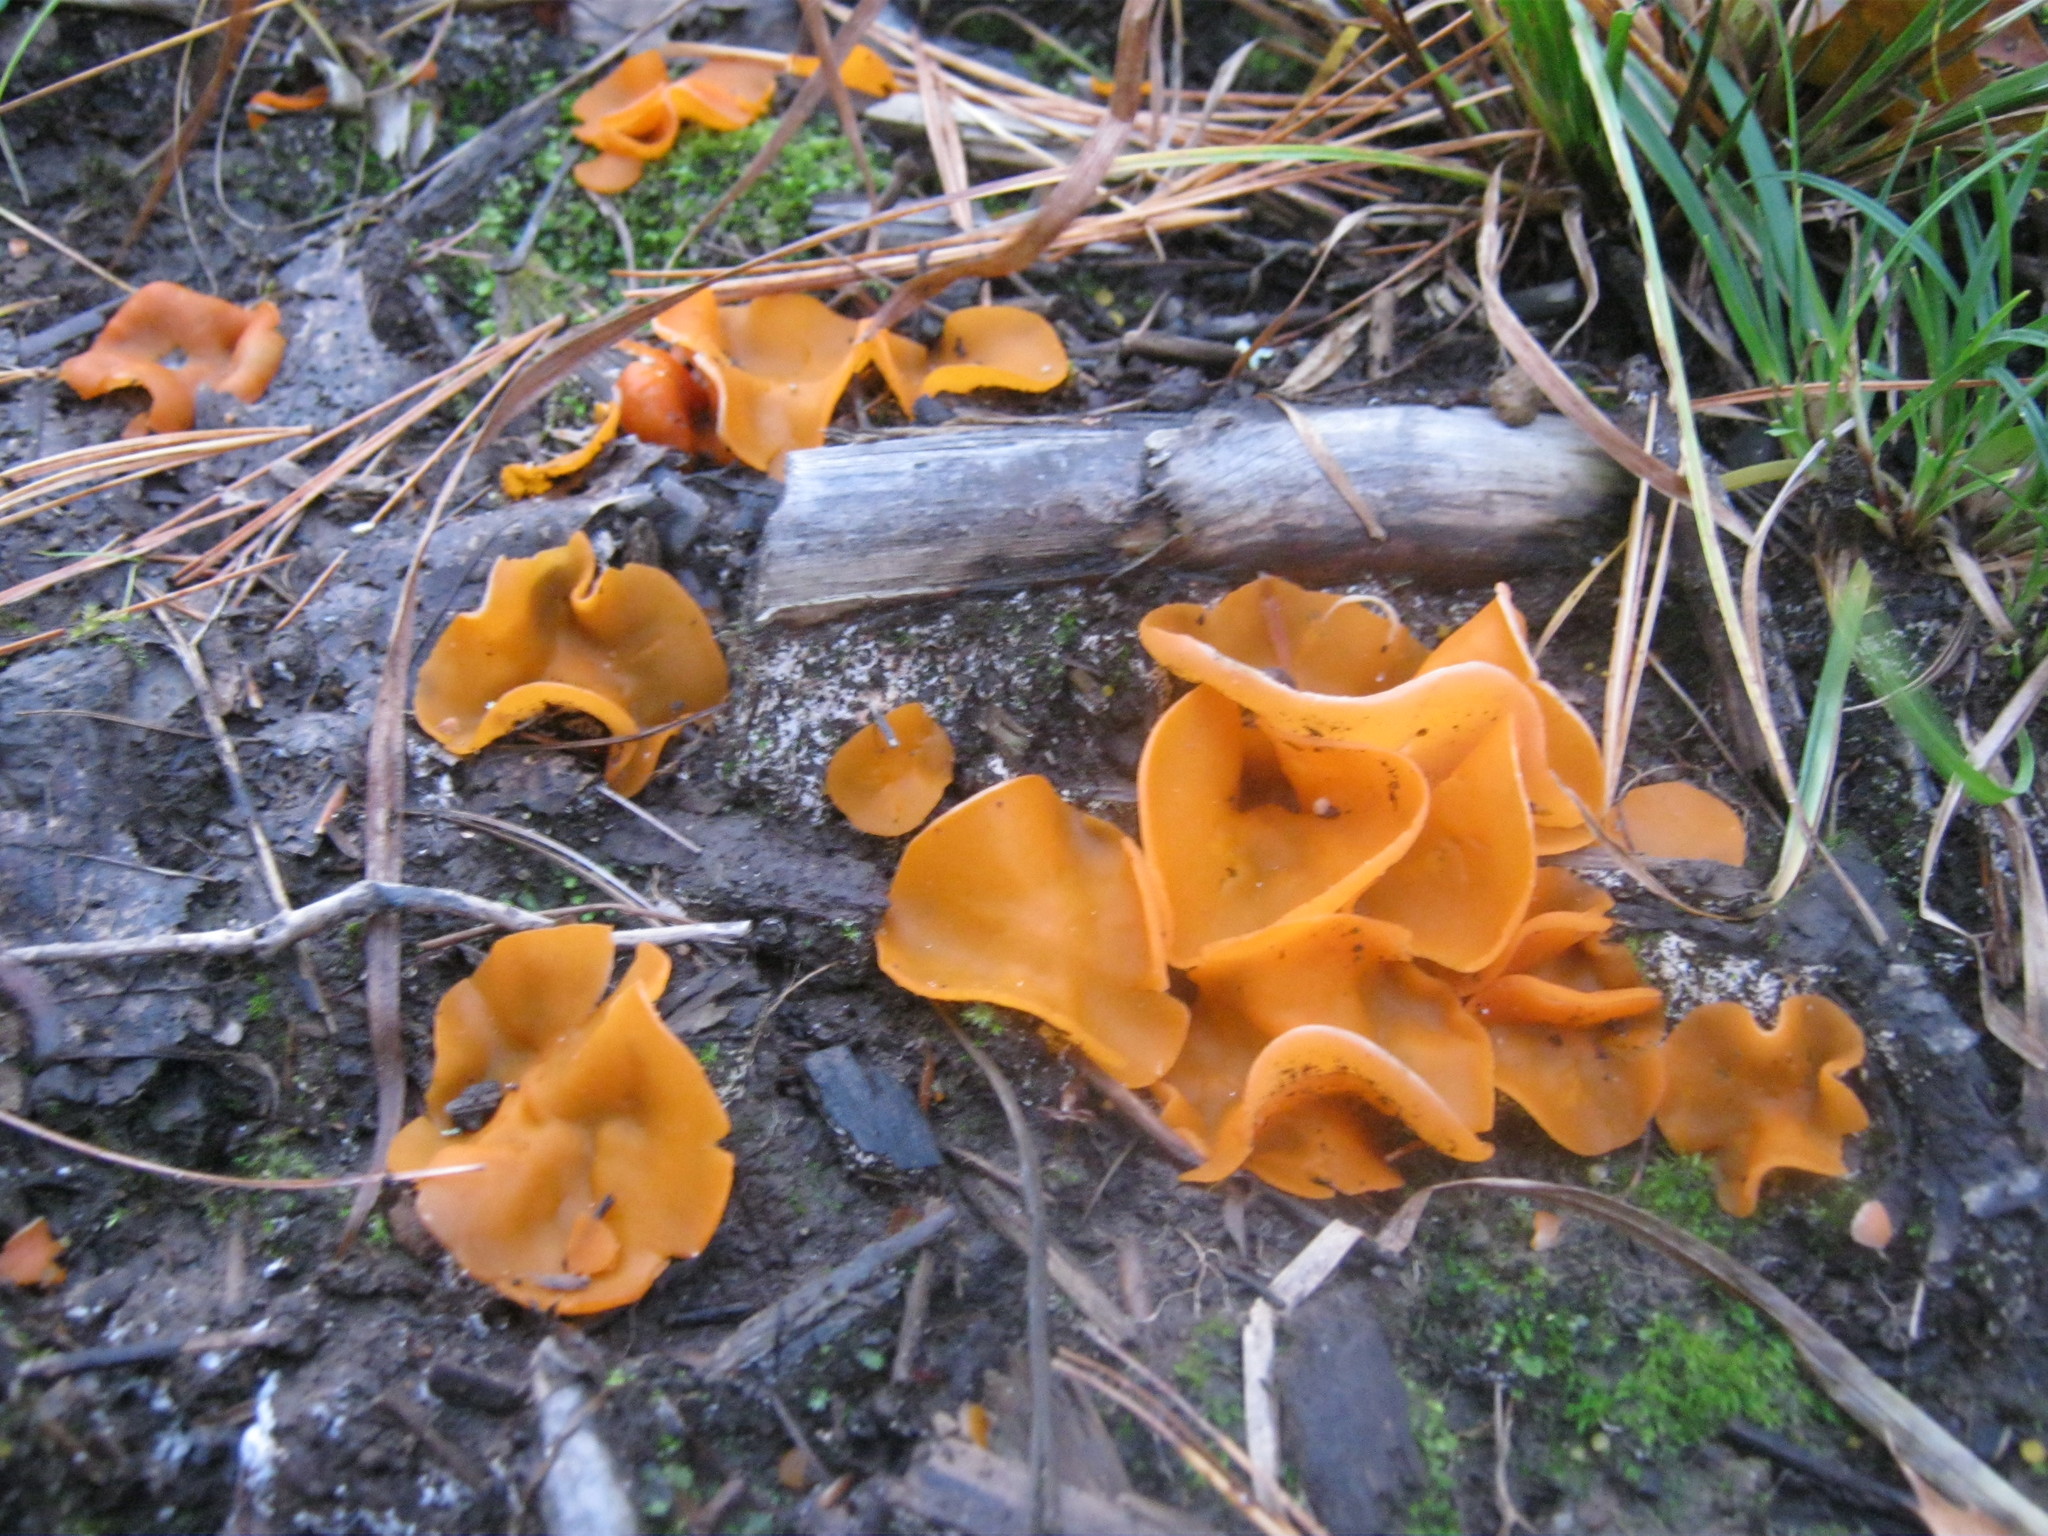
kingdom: Fungi
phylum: Ascomycota
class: Pezizomycetes
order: Pezizales
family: Pyronemataceae
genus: Aleuria
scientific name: Aleuria aurantia
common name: Orange peel fungus
